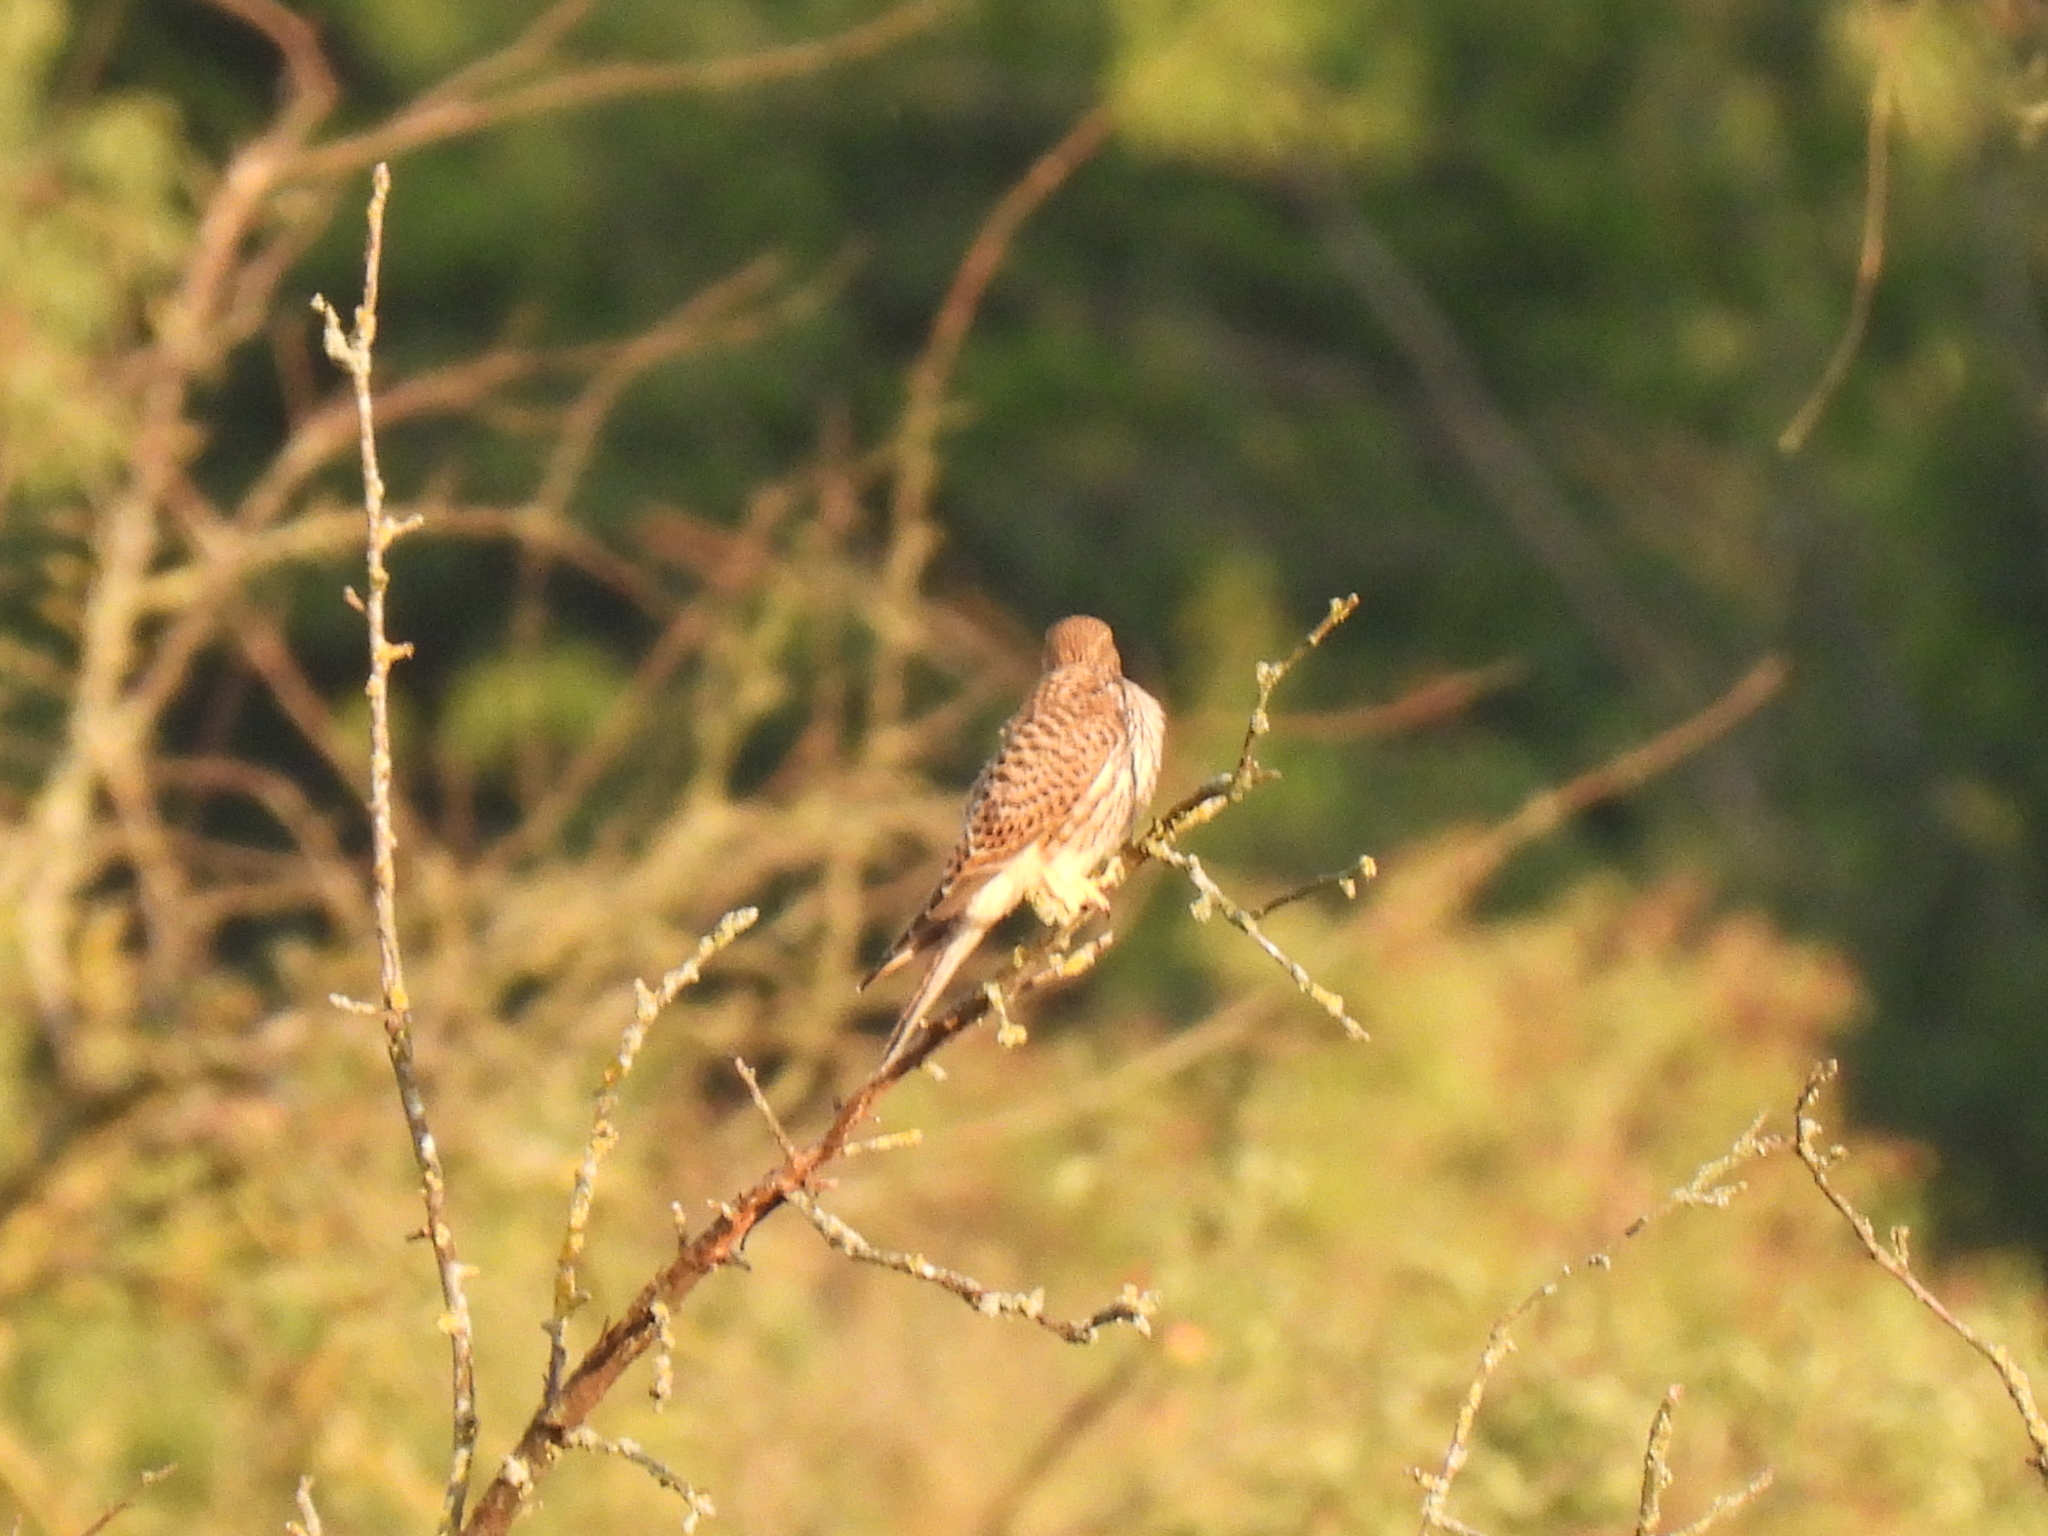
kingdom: Animalia
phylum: Chordata
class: Aves
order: Falconiformes
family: Falconidae
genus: Falco
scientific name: Falco tinnunculus
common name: Common kestrel
